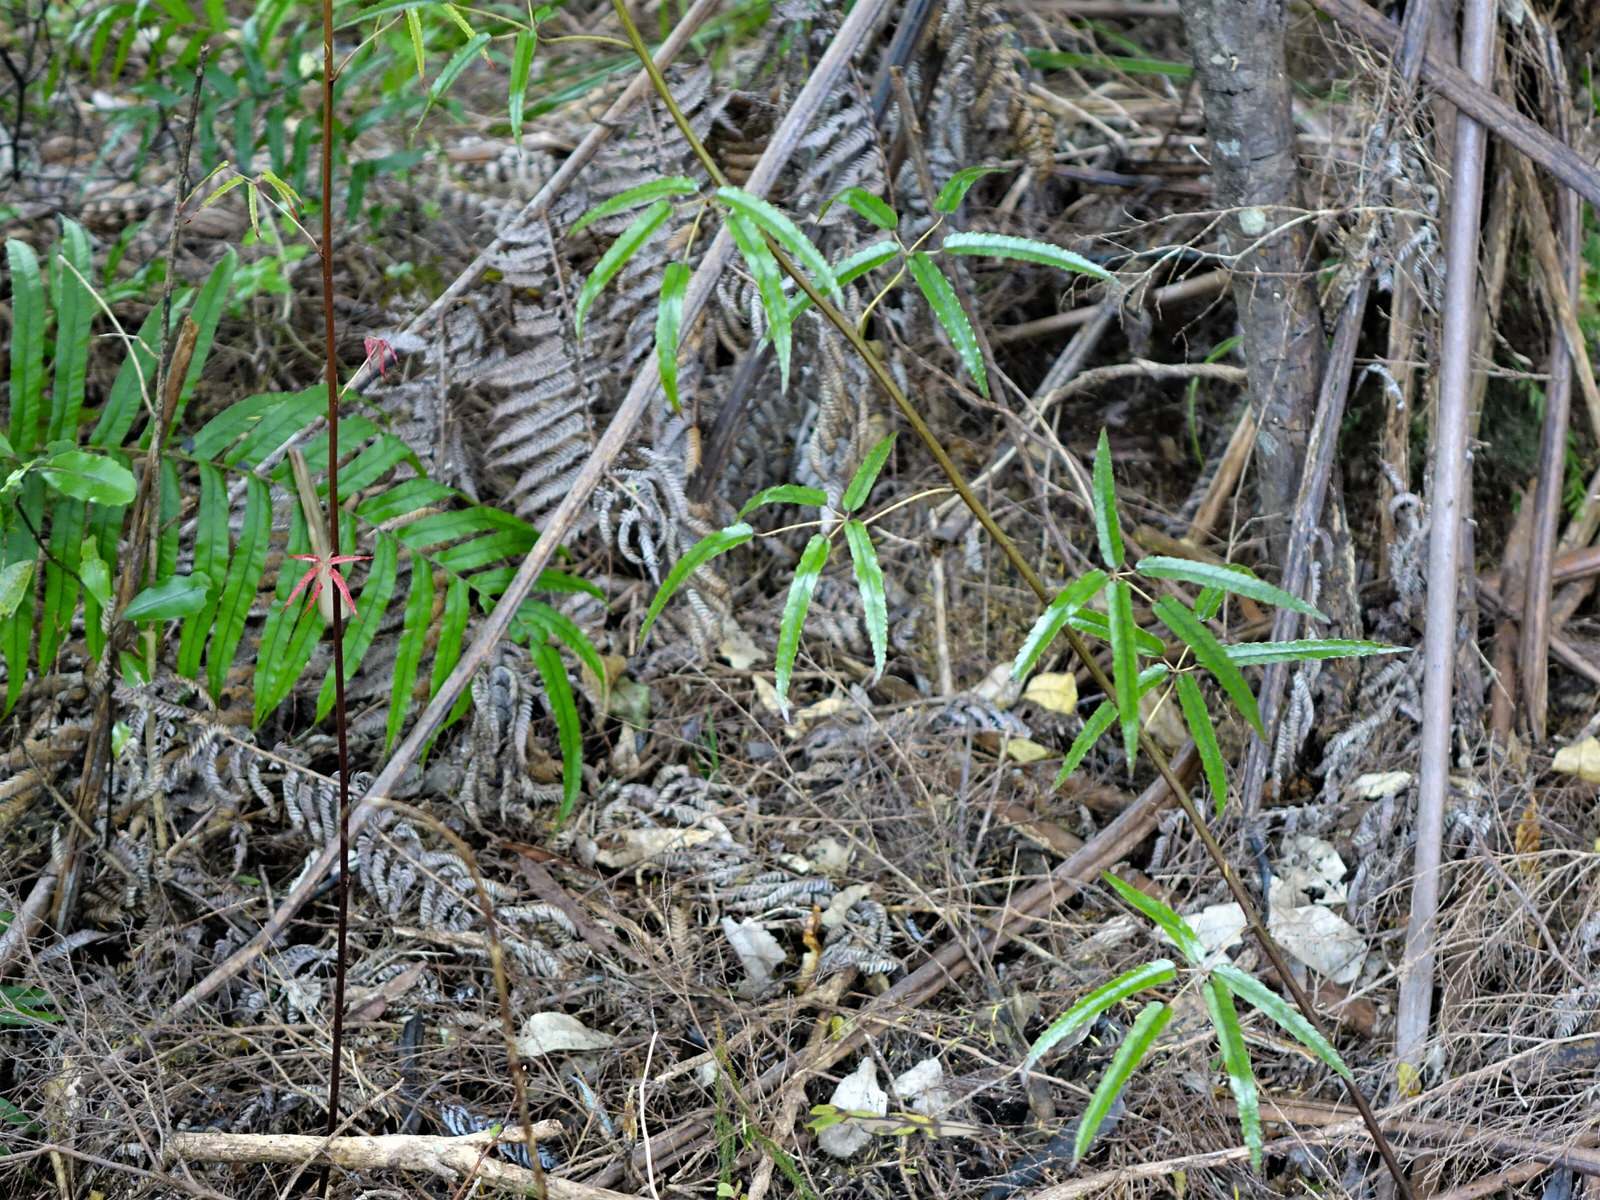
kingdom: Plantae
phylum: Tracheophyta
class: Magnoliopsida
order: Rosales
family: Rosaceae
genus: Rubus
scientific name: Rubus cissoides
